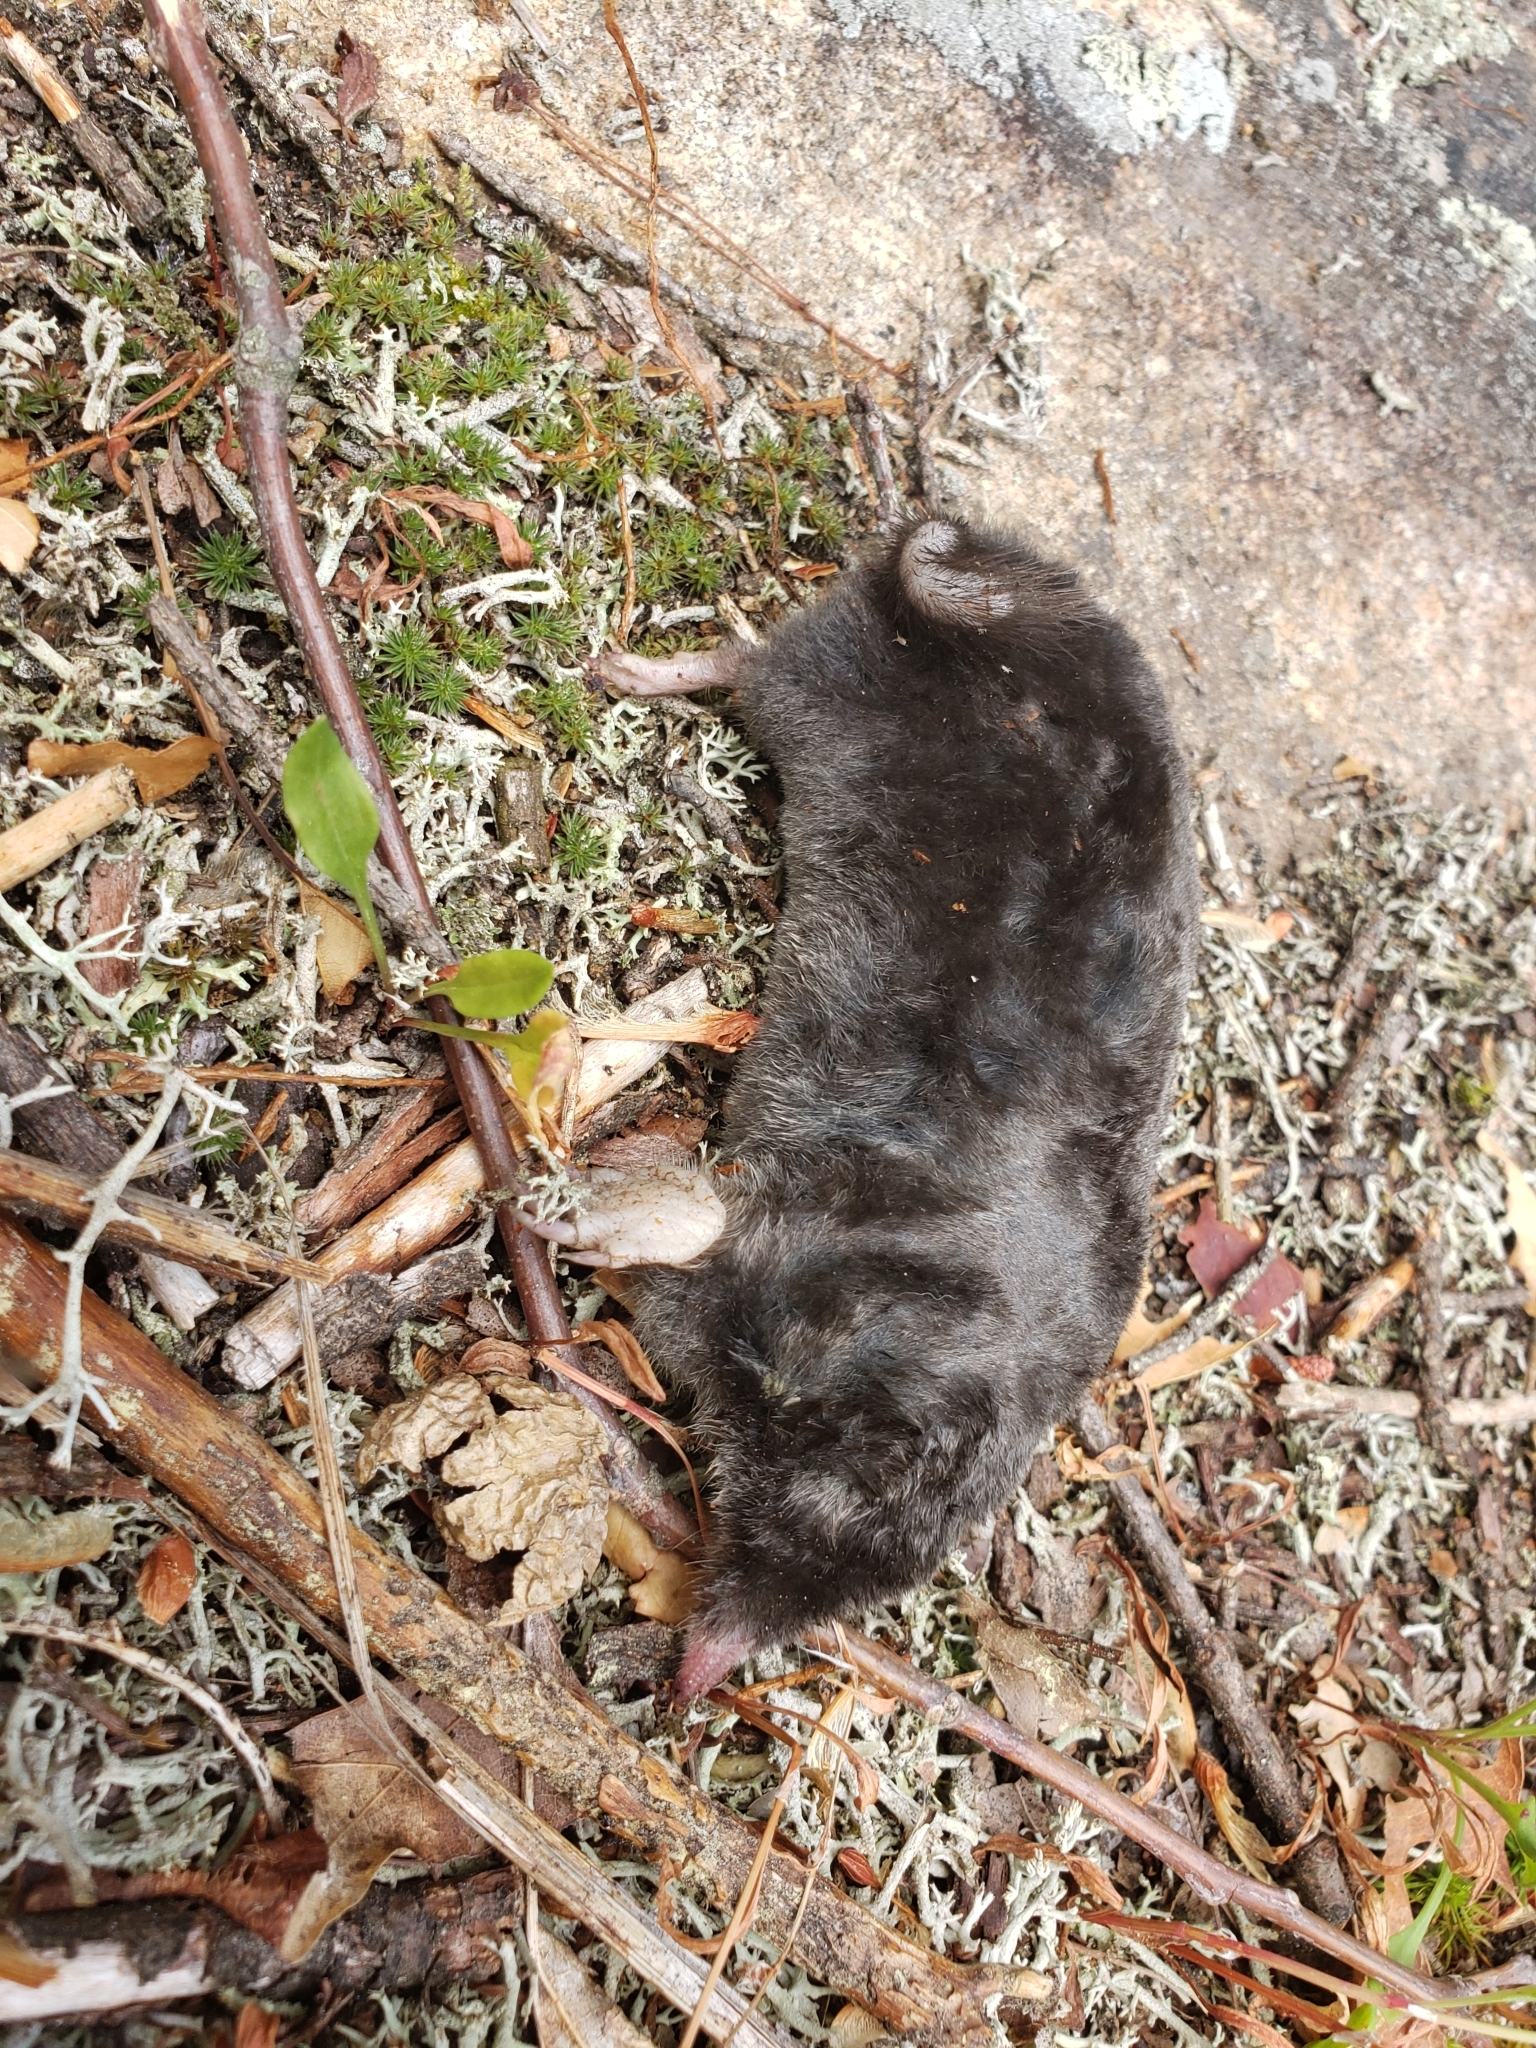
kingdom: Animalia
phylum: Chordata
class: Mammalia
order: Soricomorpha
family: Talpidae
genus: Parascalops
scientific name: Parascalops breweri
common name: Hairy-tailed mole
